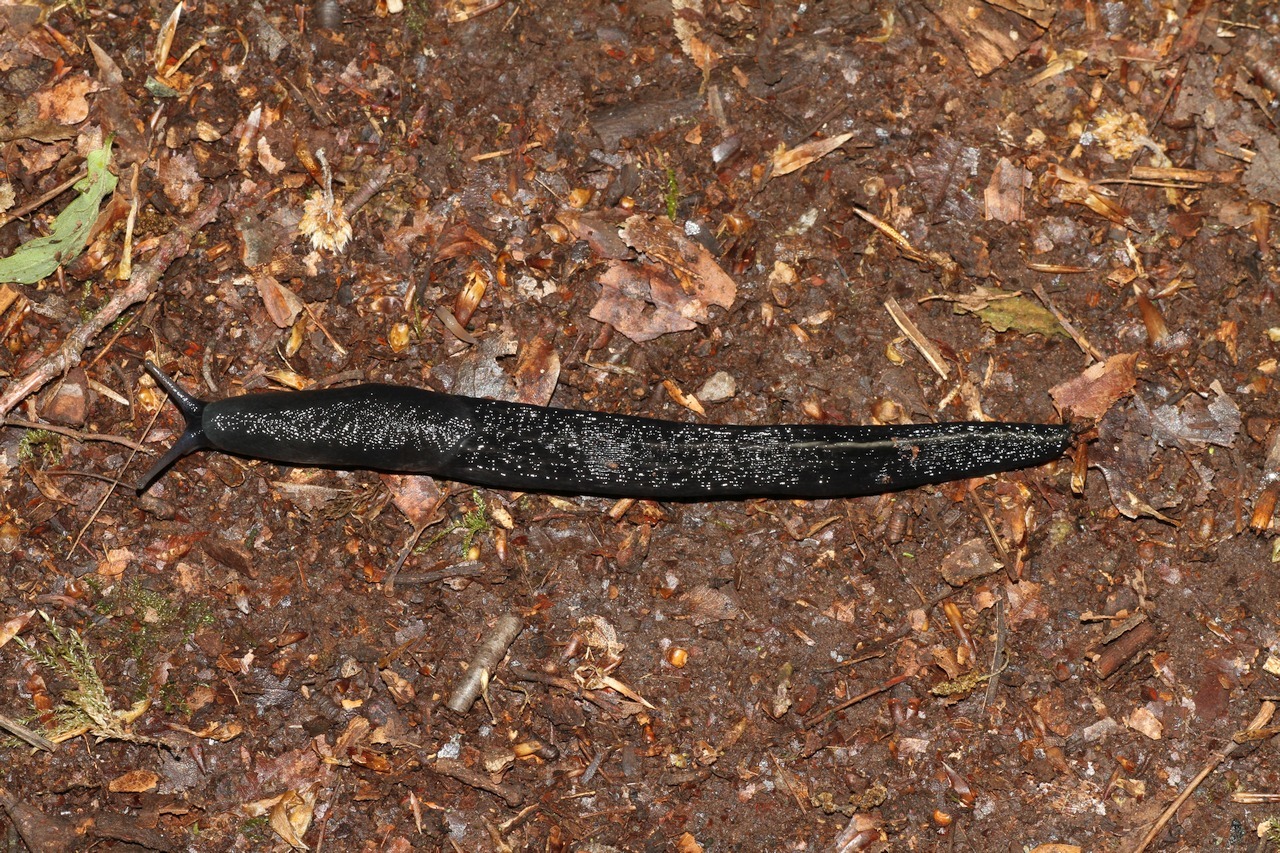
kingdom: Animalia
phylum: Mollusca
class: Gastropoda
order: Stylommatophora
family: Limacidae
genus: Limax
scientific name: Limax cinereoniger
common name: Ash-black slug
